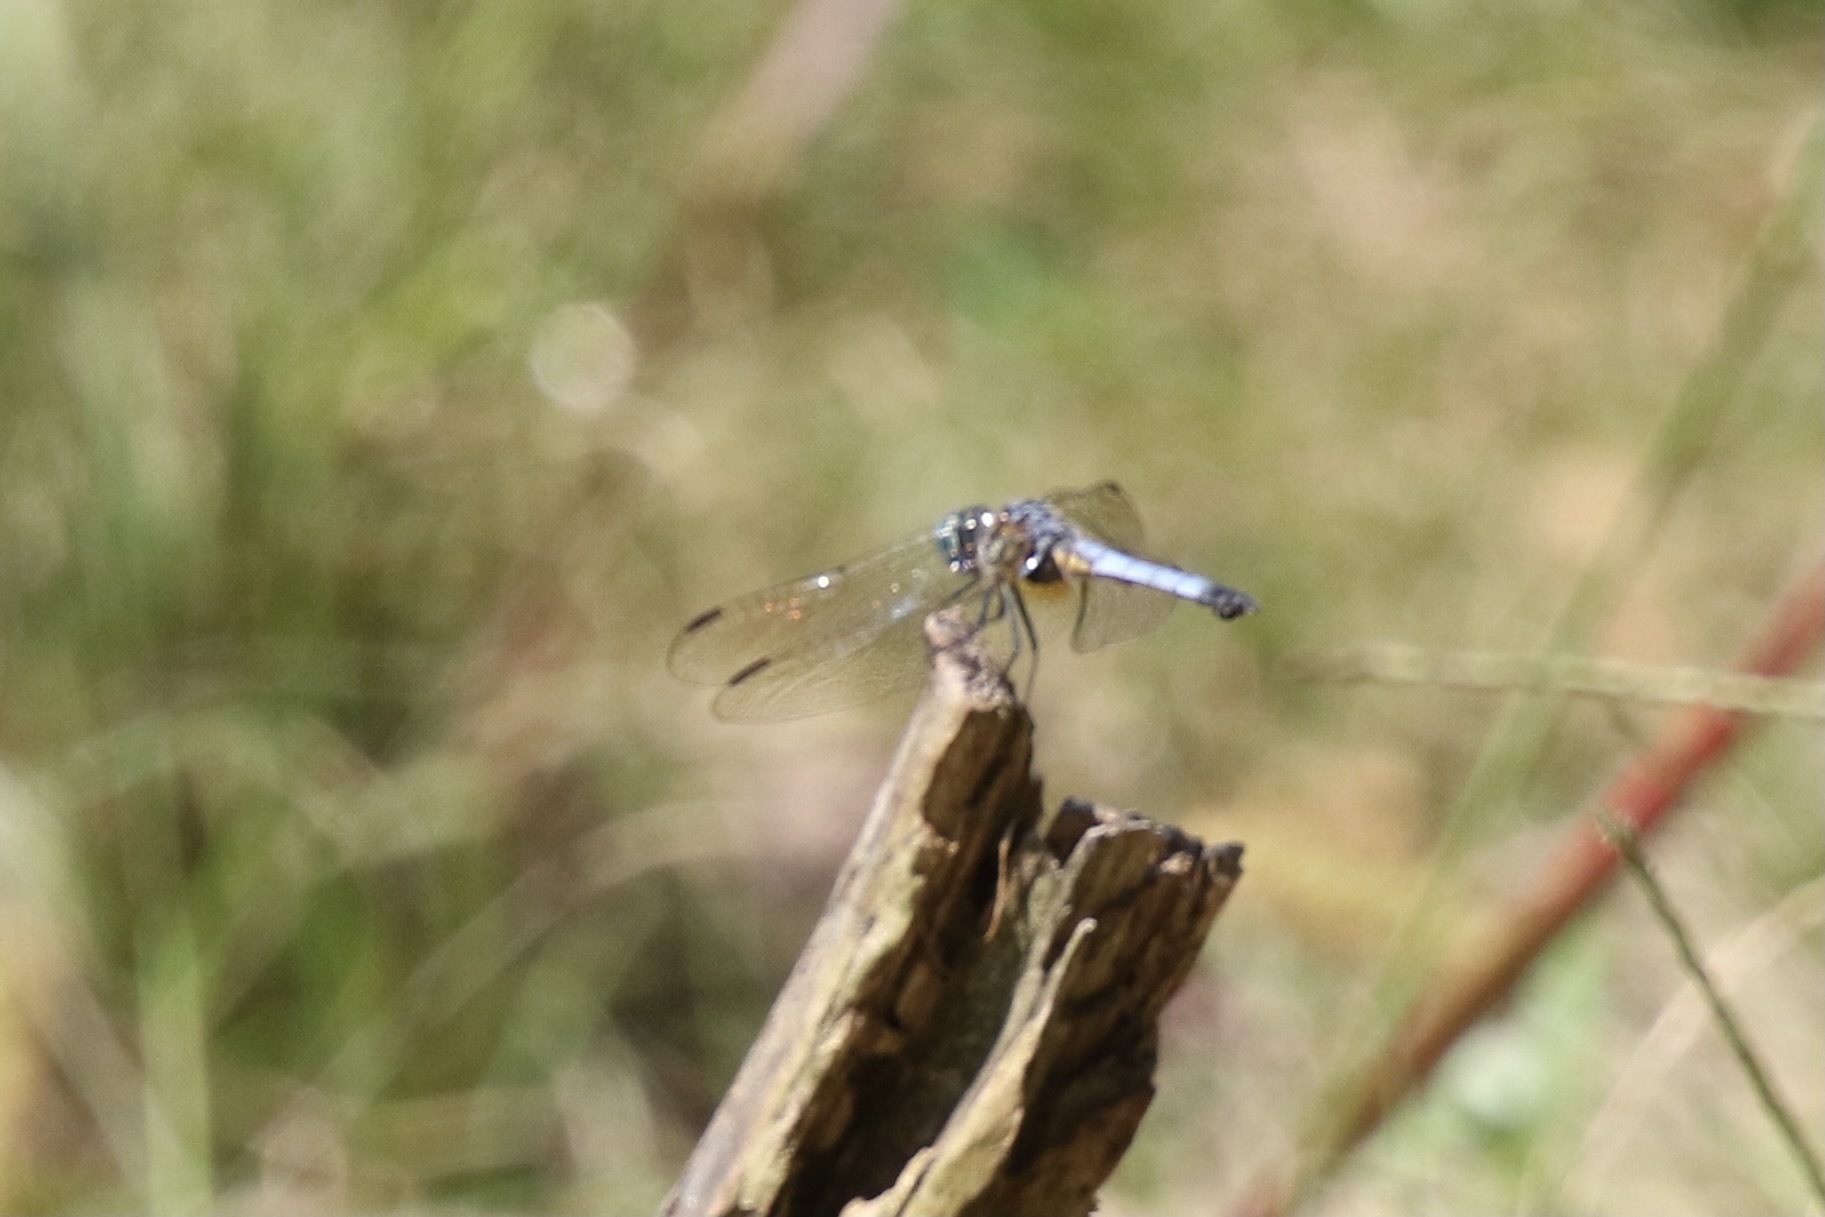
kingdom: Animalia
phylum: Arthropoda
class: Insecta
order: Odonata
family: Libellulidae
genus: Pachydiplax
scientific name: Pachydiplax longipennis
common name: Blue dasher
